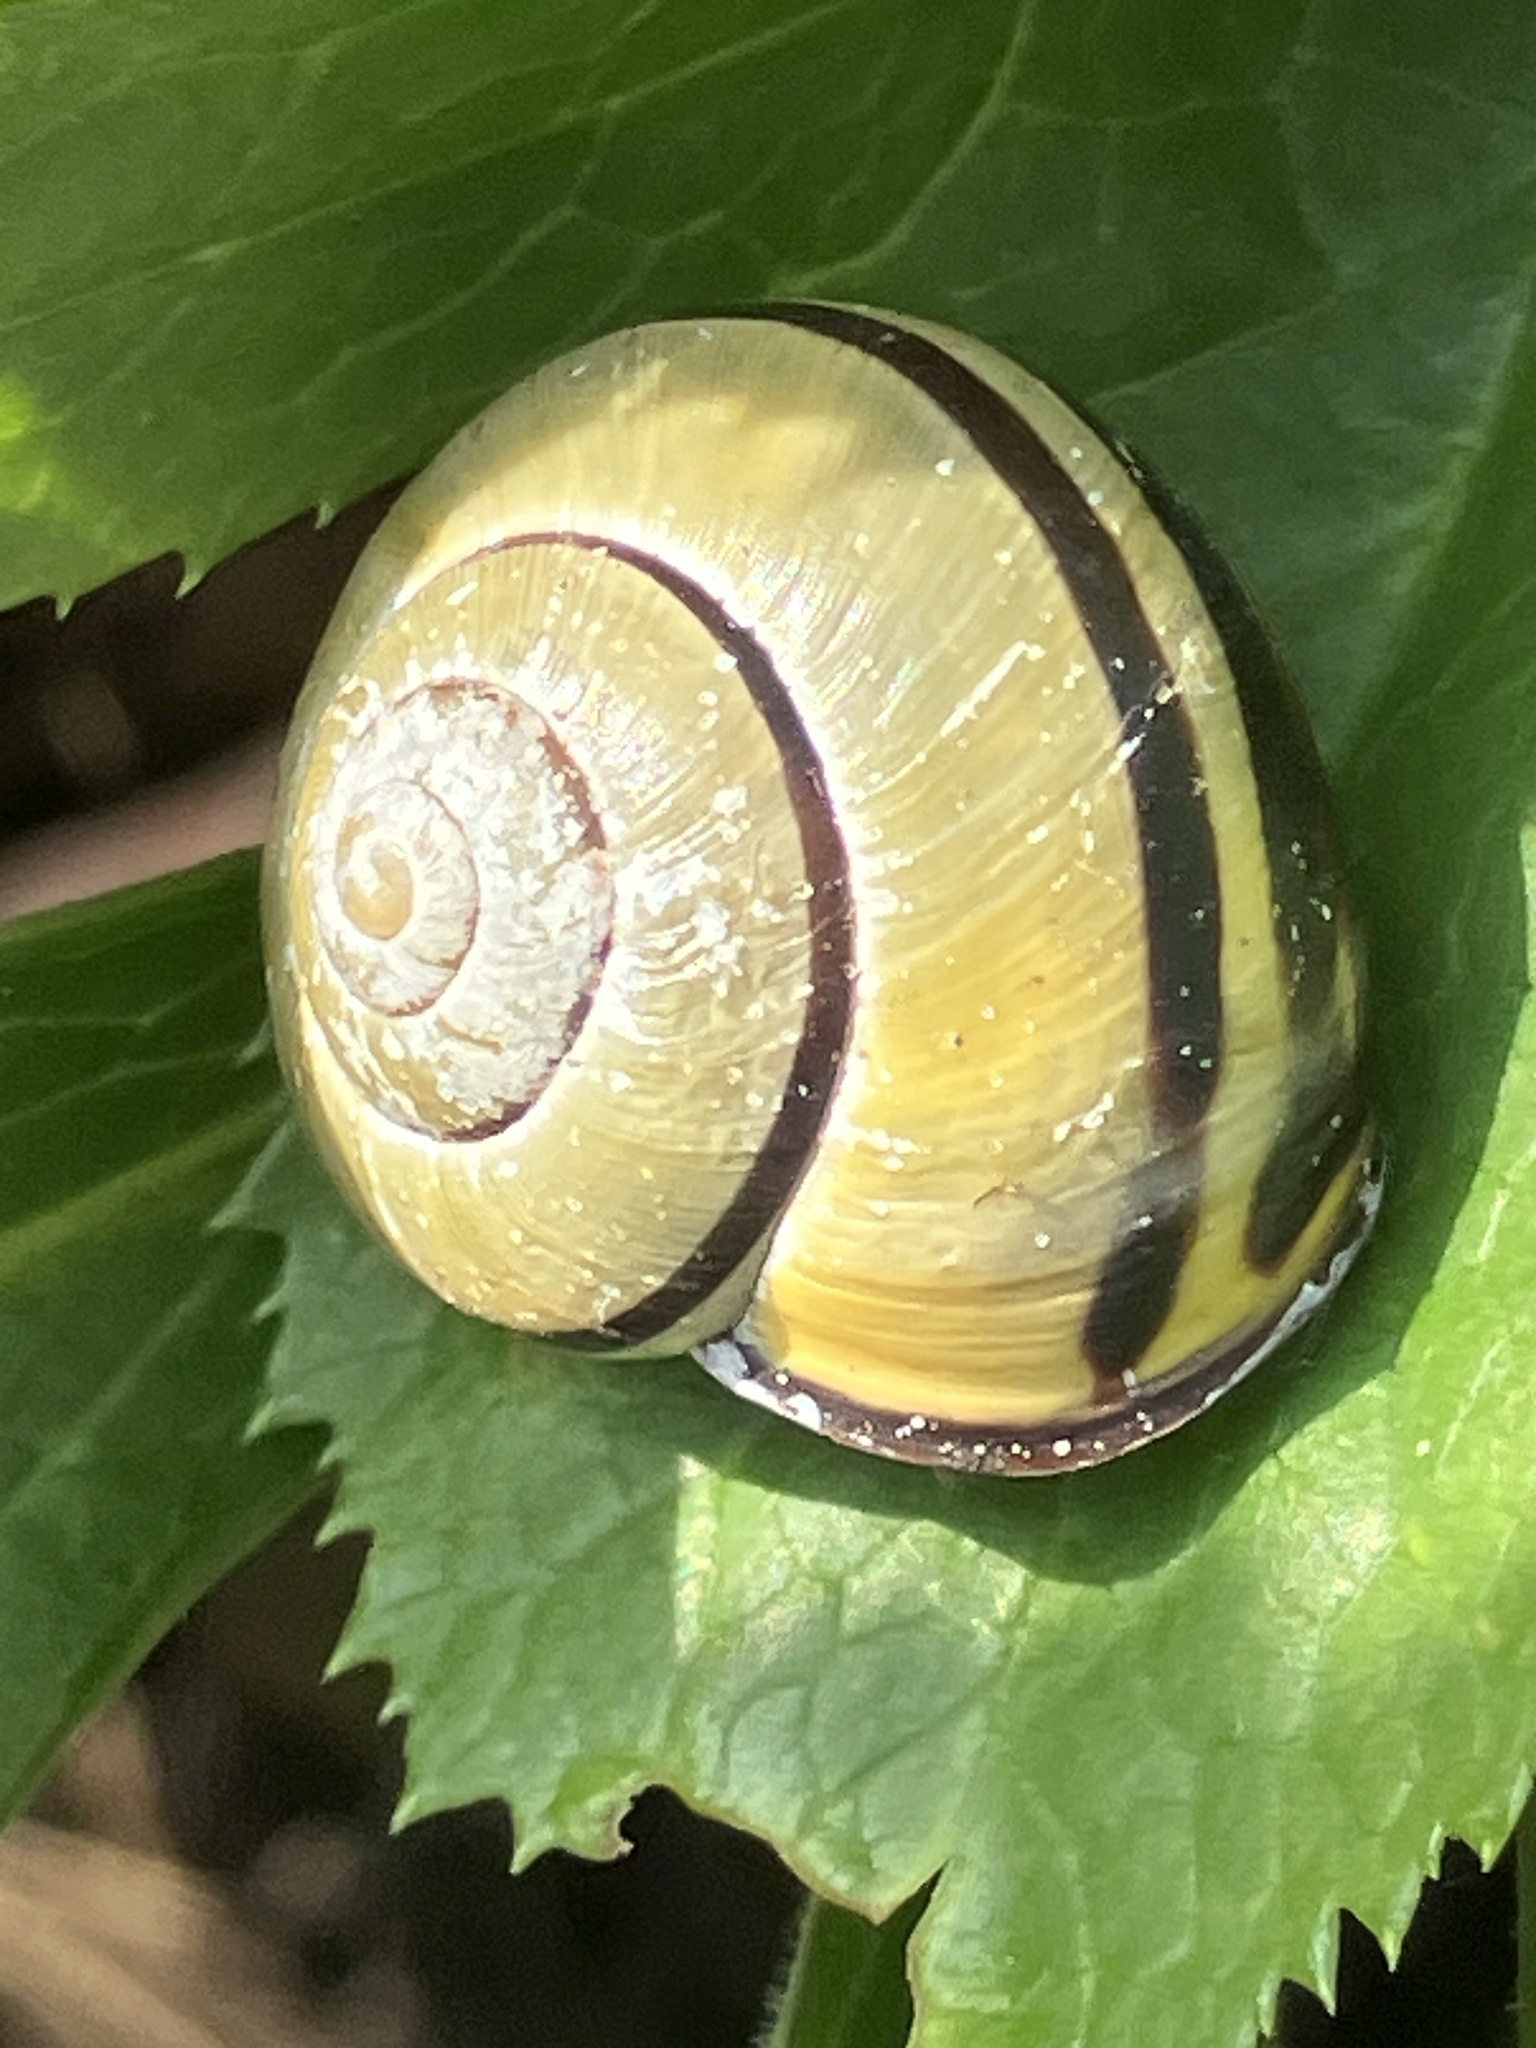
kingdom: Animalia
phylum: Mollusca
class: Gastropoda
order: Stylommatophora
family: Helicidae
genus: Cepaea
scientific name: Cepaea nemoralis
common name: Grovesnail
